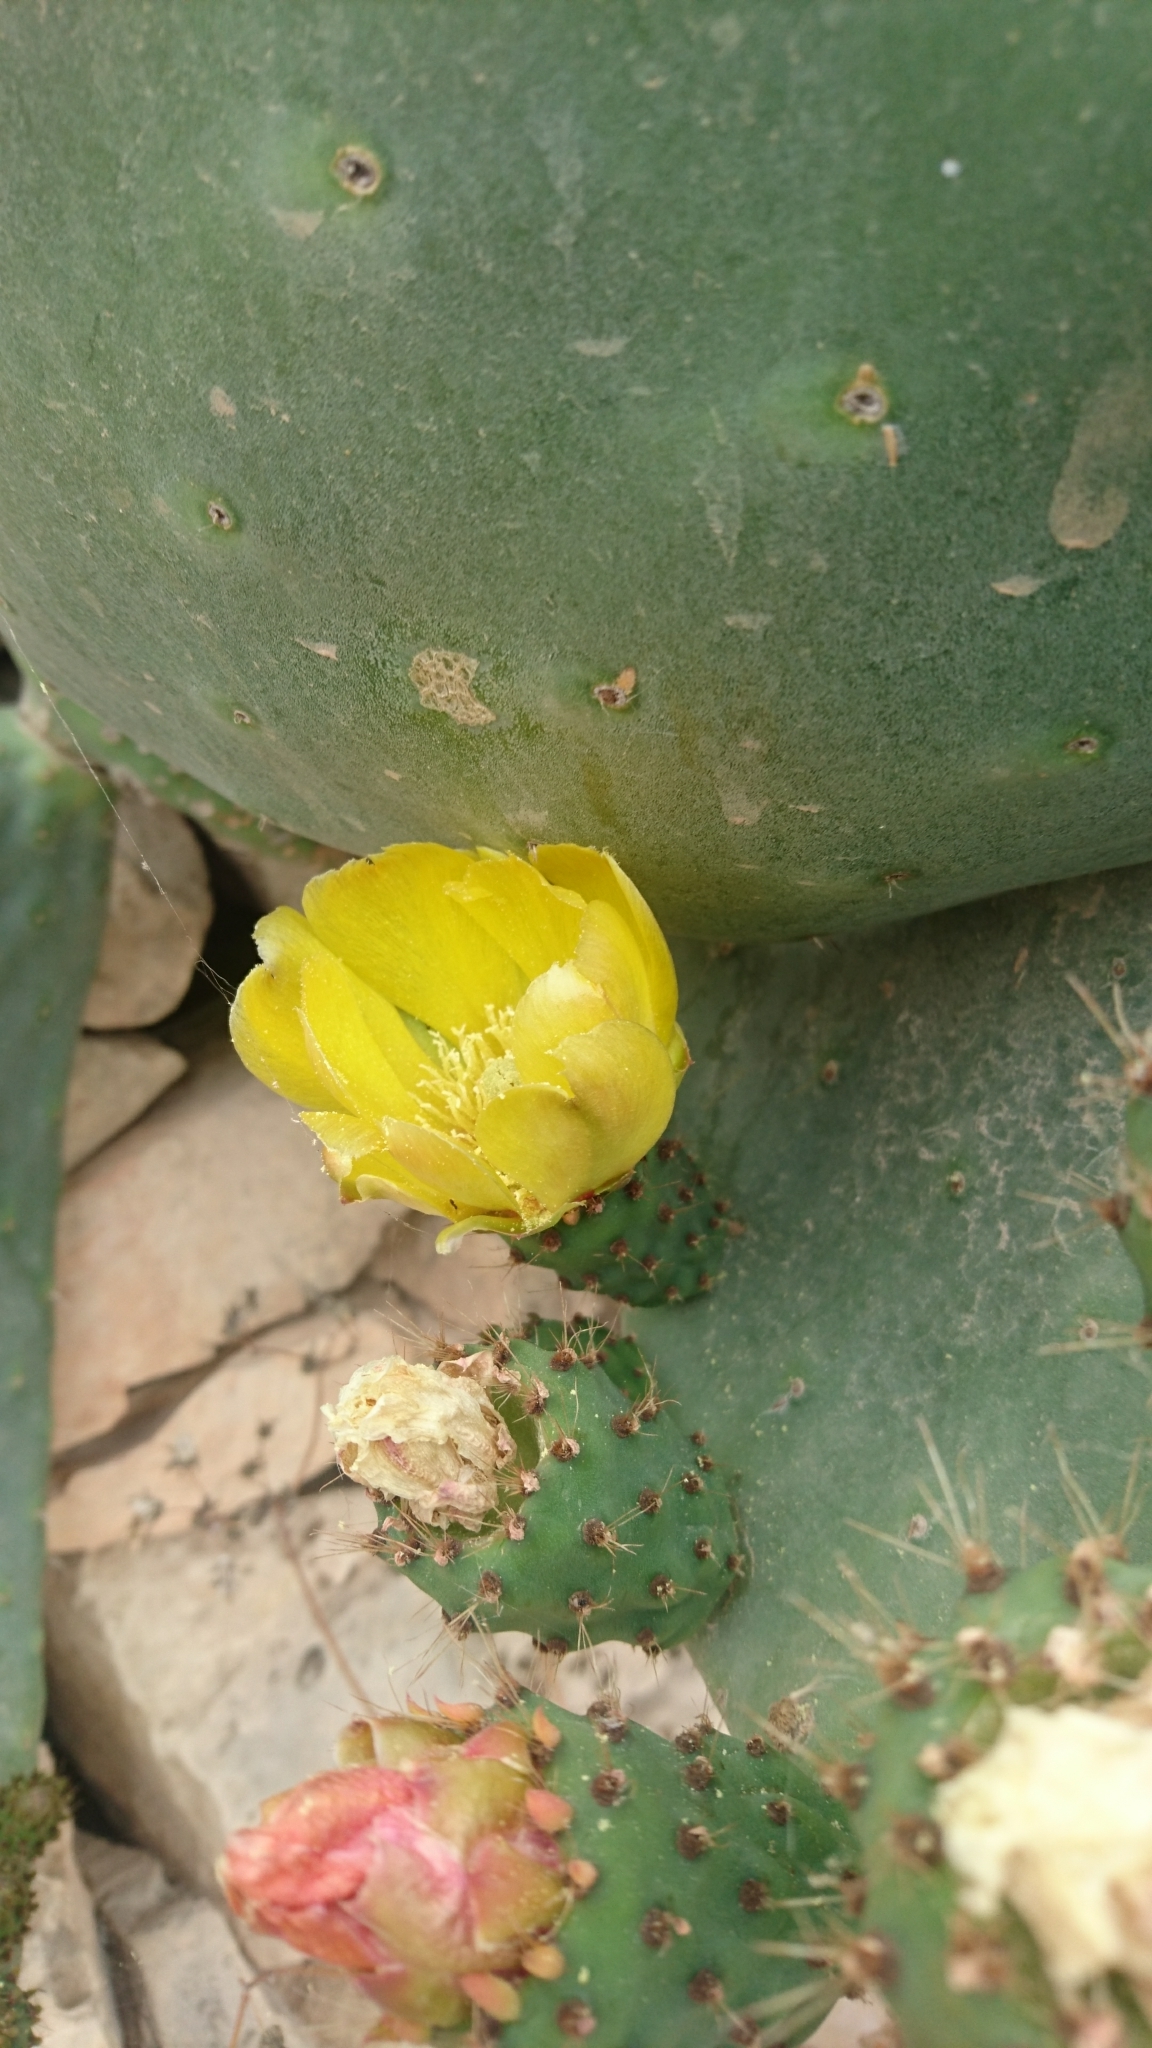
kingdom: Plantae
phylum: Tracheophyta
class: Magnoliopsida
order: Caryophyllales
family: Cactaceae
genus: Opuntia
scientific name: Opuntia ficus-indica
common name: Barbary fig
